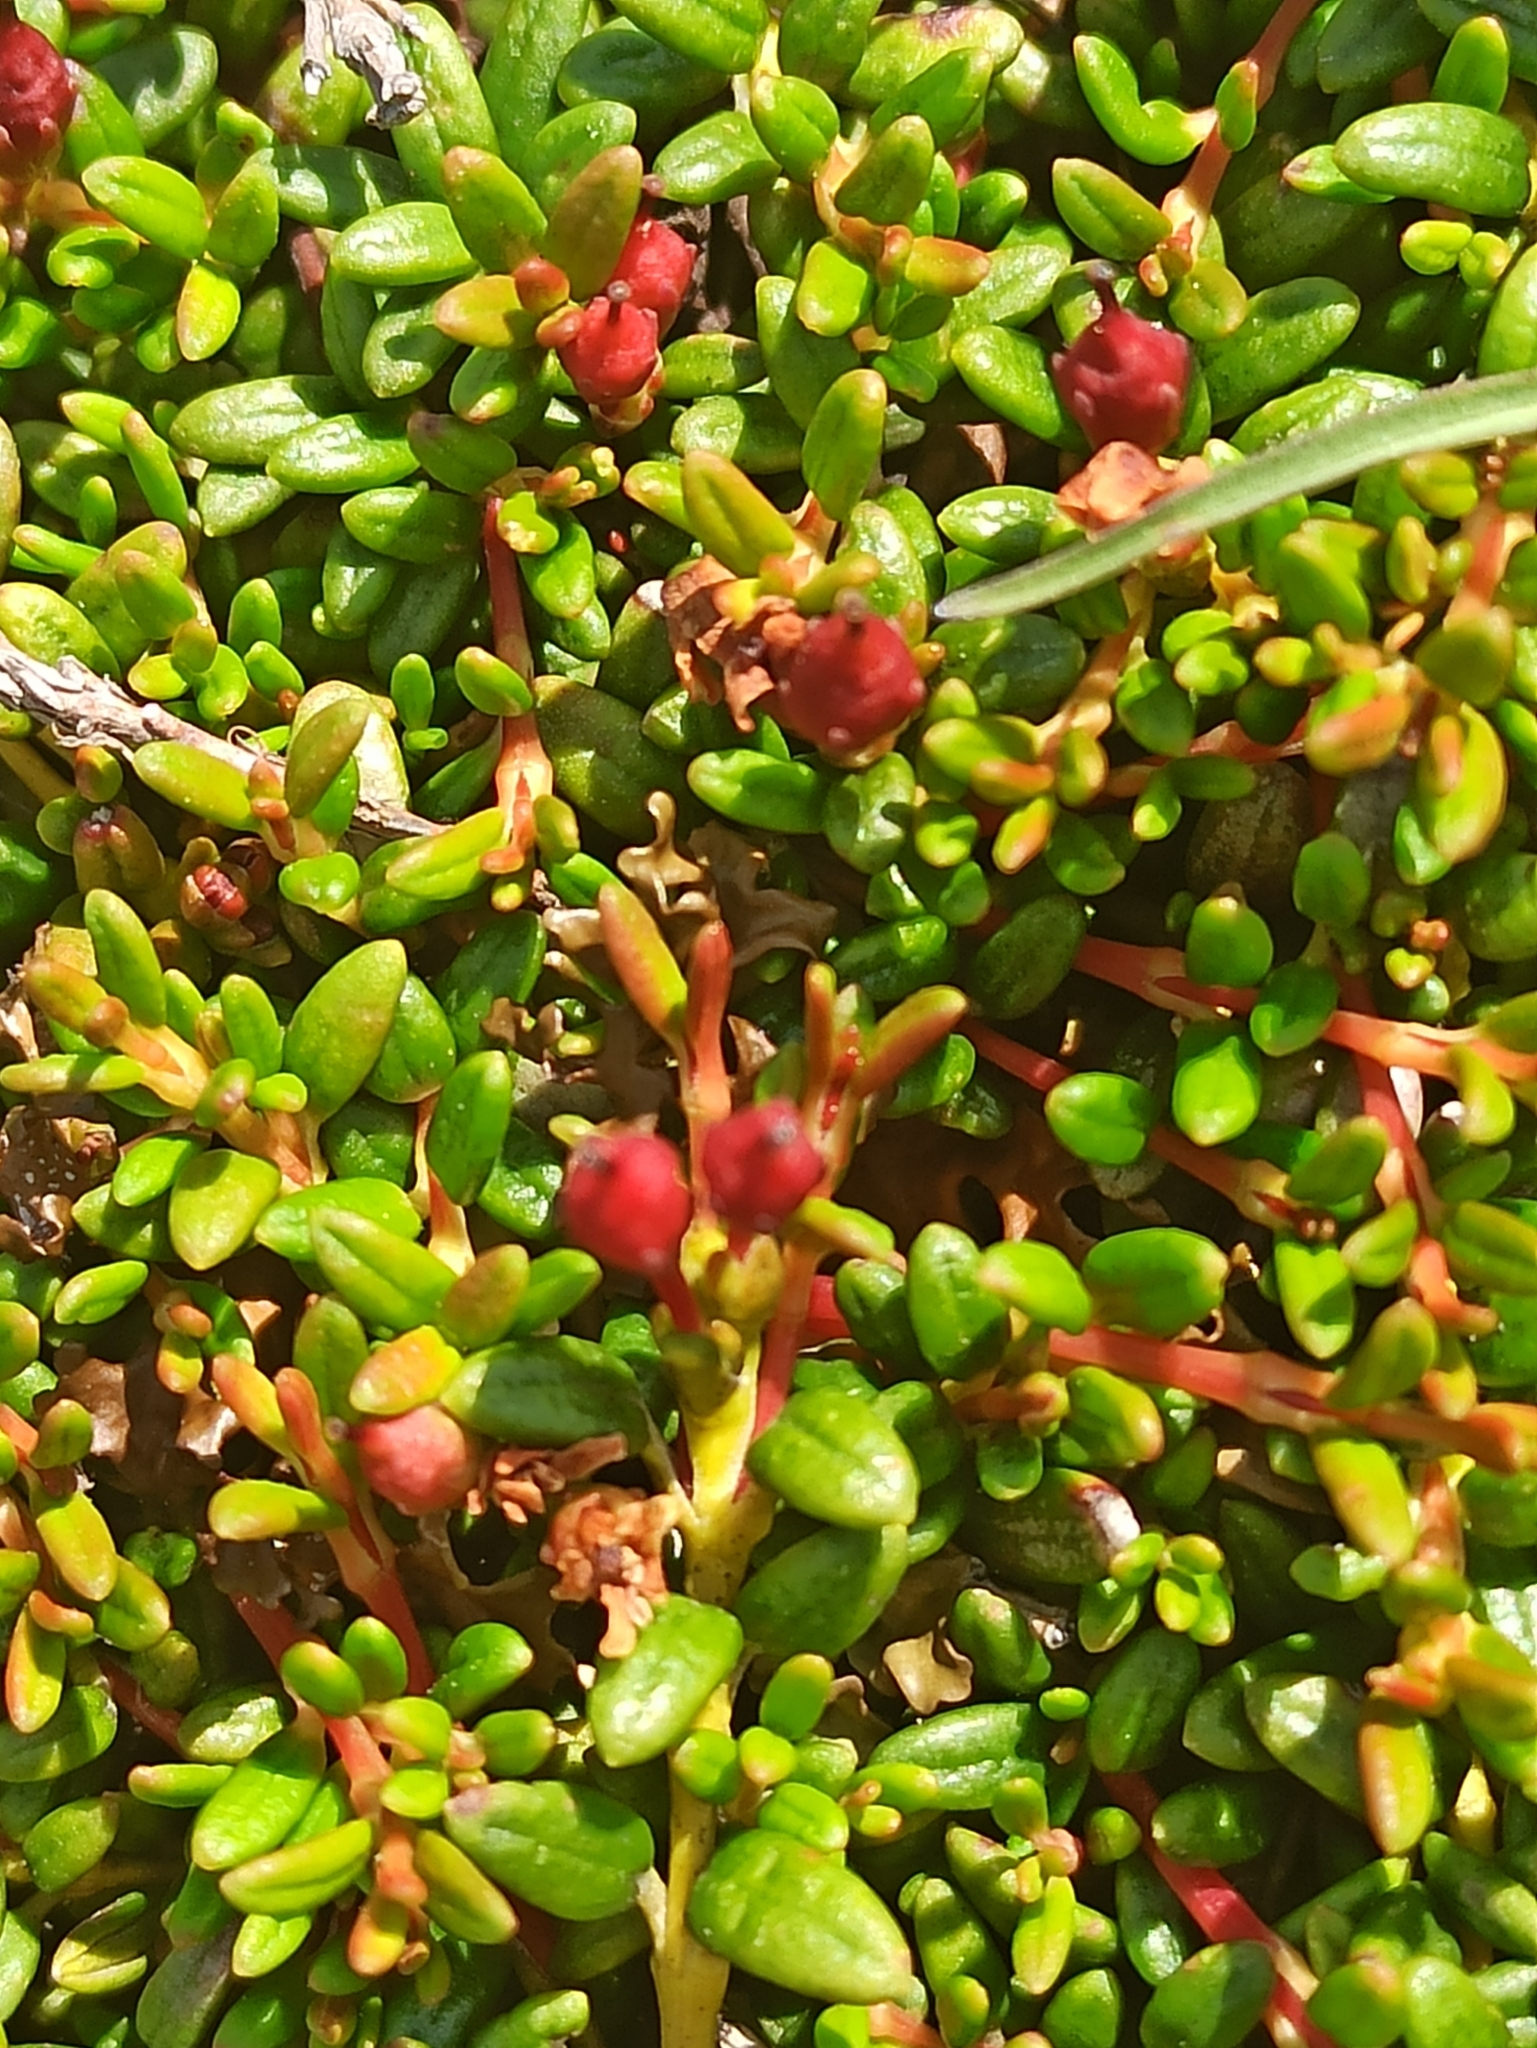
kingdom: Plantae
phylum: Tracheophyta
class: Magnoliopsida
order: Ericales
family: Ericaceae
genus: Kalmia
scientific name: Kalmia procumbens
